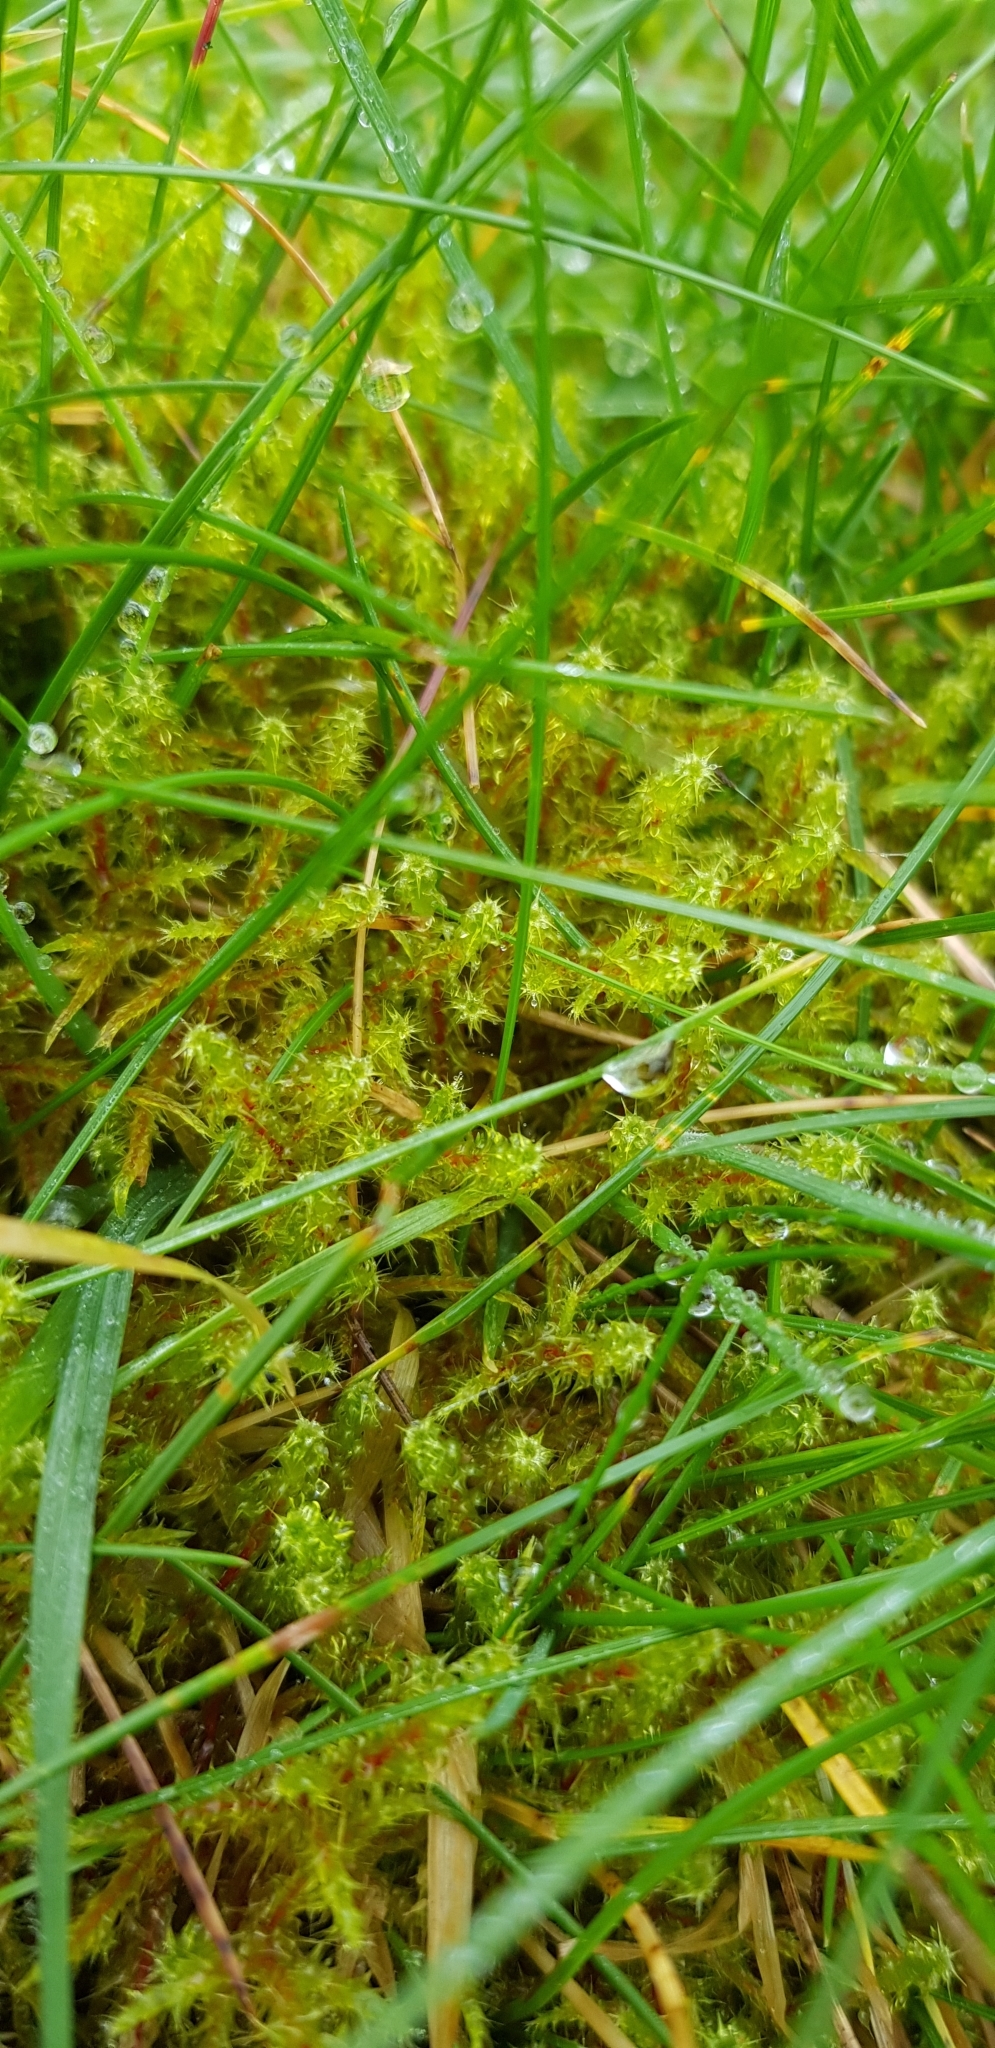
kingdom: Plantae
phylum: Bryophyta
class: Bryopsida
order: Hypnales
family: Hylocomiaceae
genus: Rhytidiadelphus
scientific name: Rhytidiadelphus squarrosus
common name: Springy turf-moss
